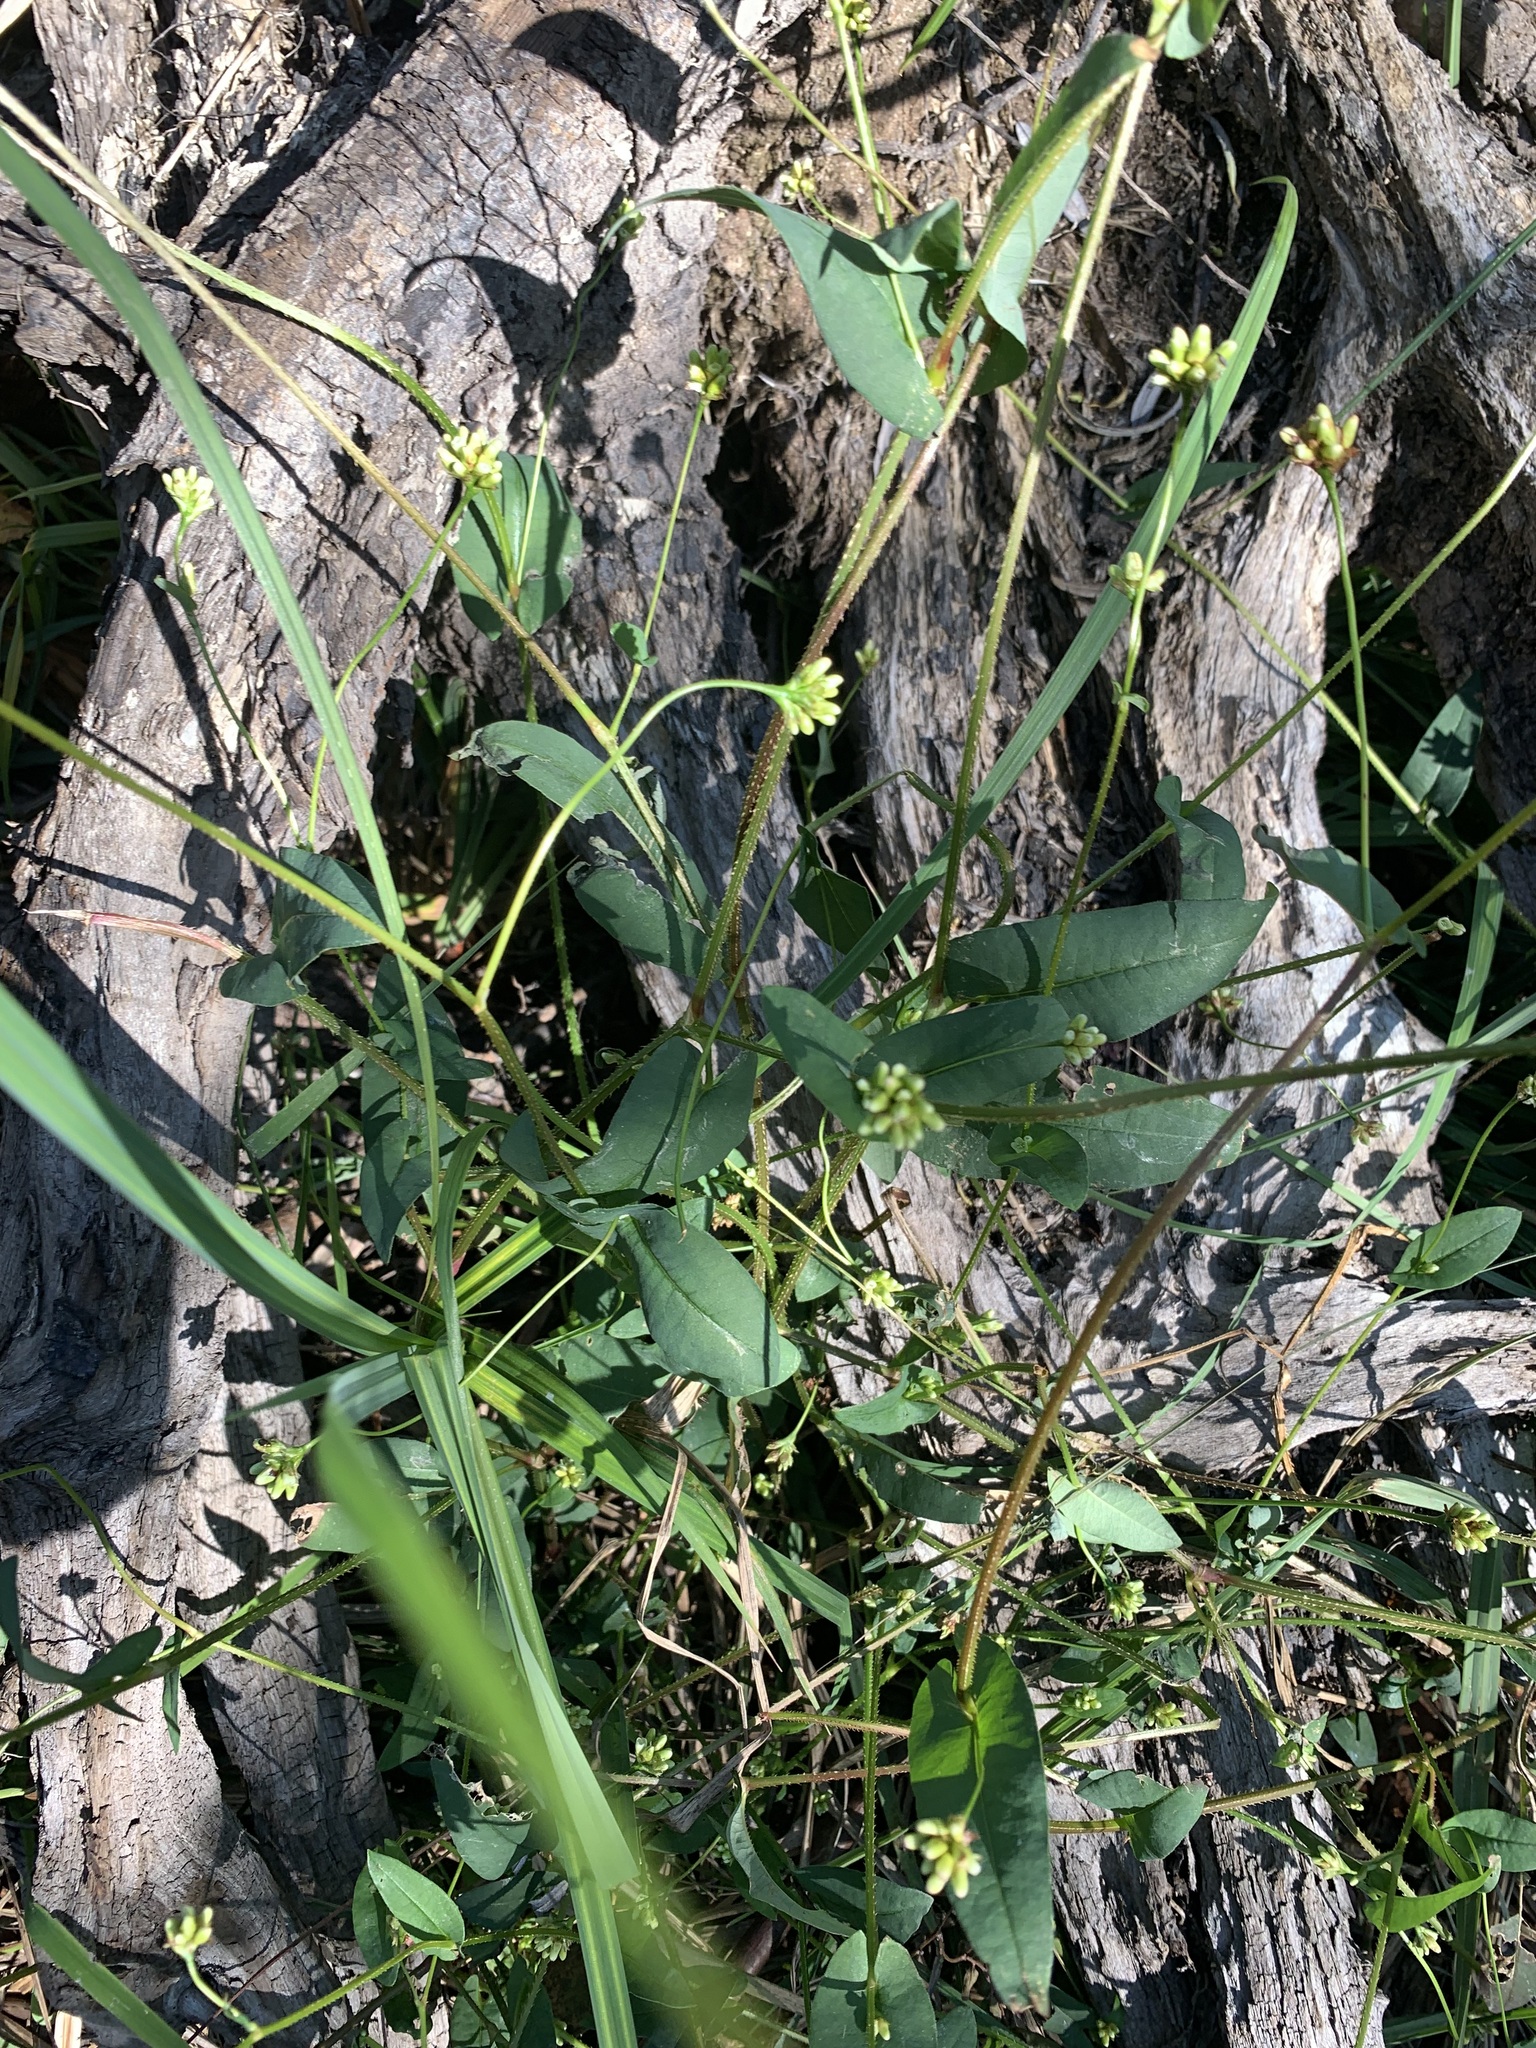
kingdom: Plantae
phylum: Tracheophyta
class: Magnoliopsida
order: Caryophyllales
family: Polygonaceae
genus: Persicaria
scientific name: Persicaria sagittata
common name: American tearthumb
